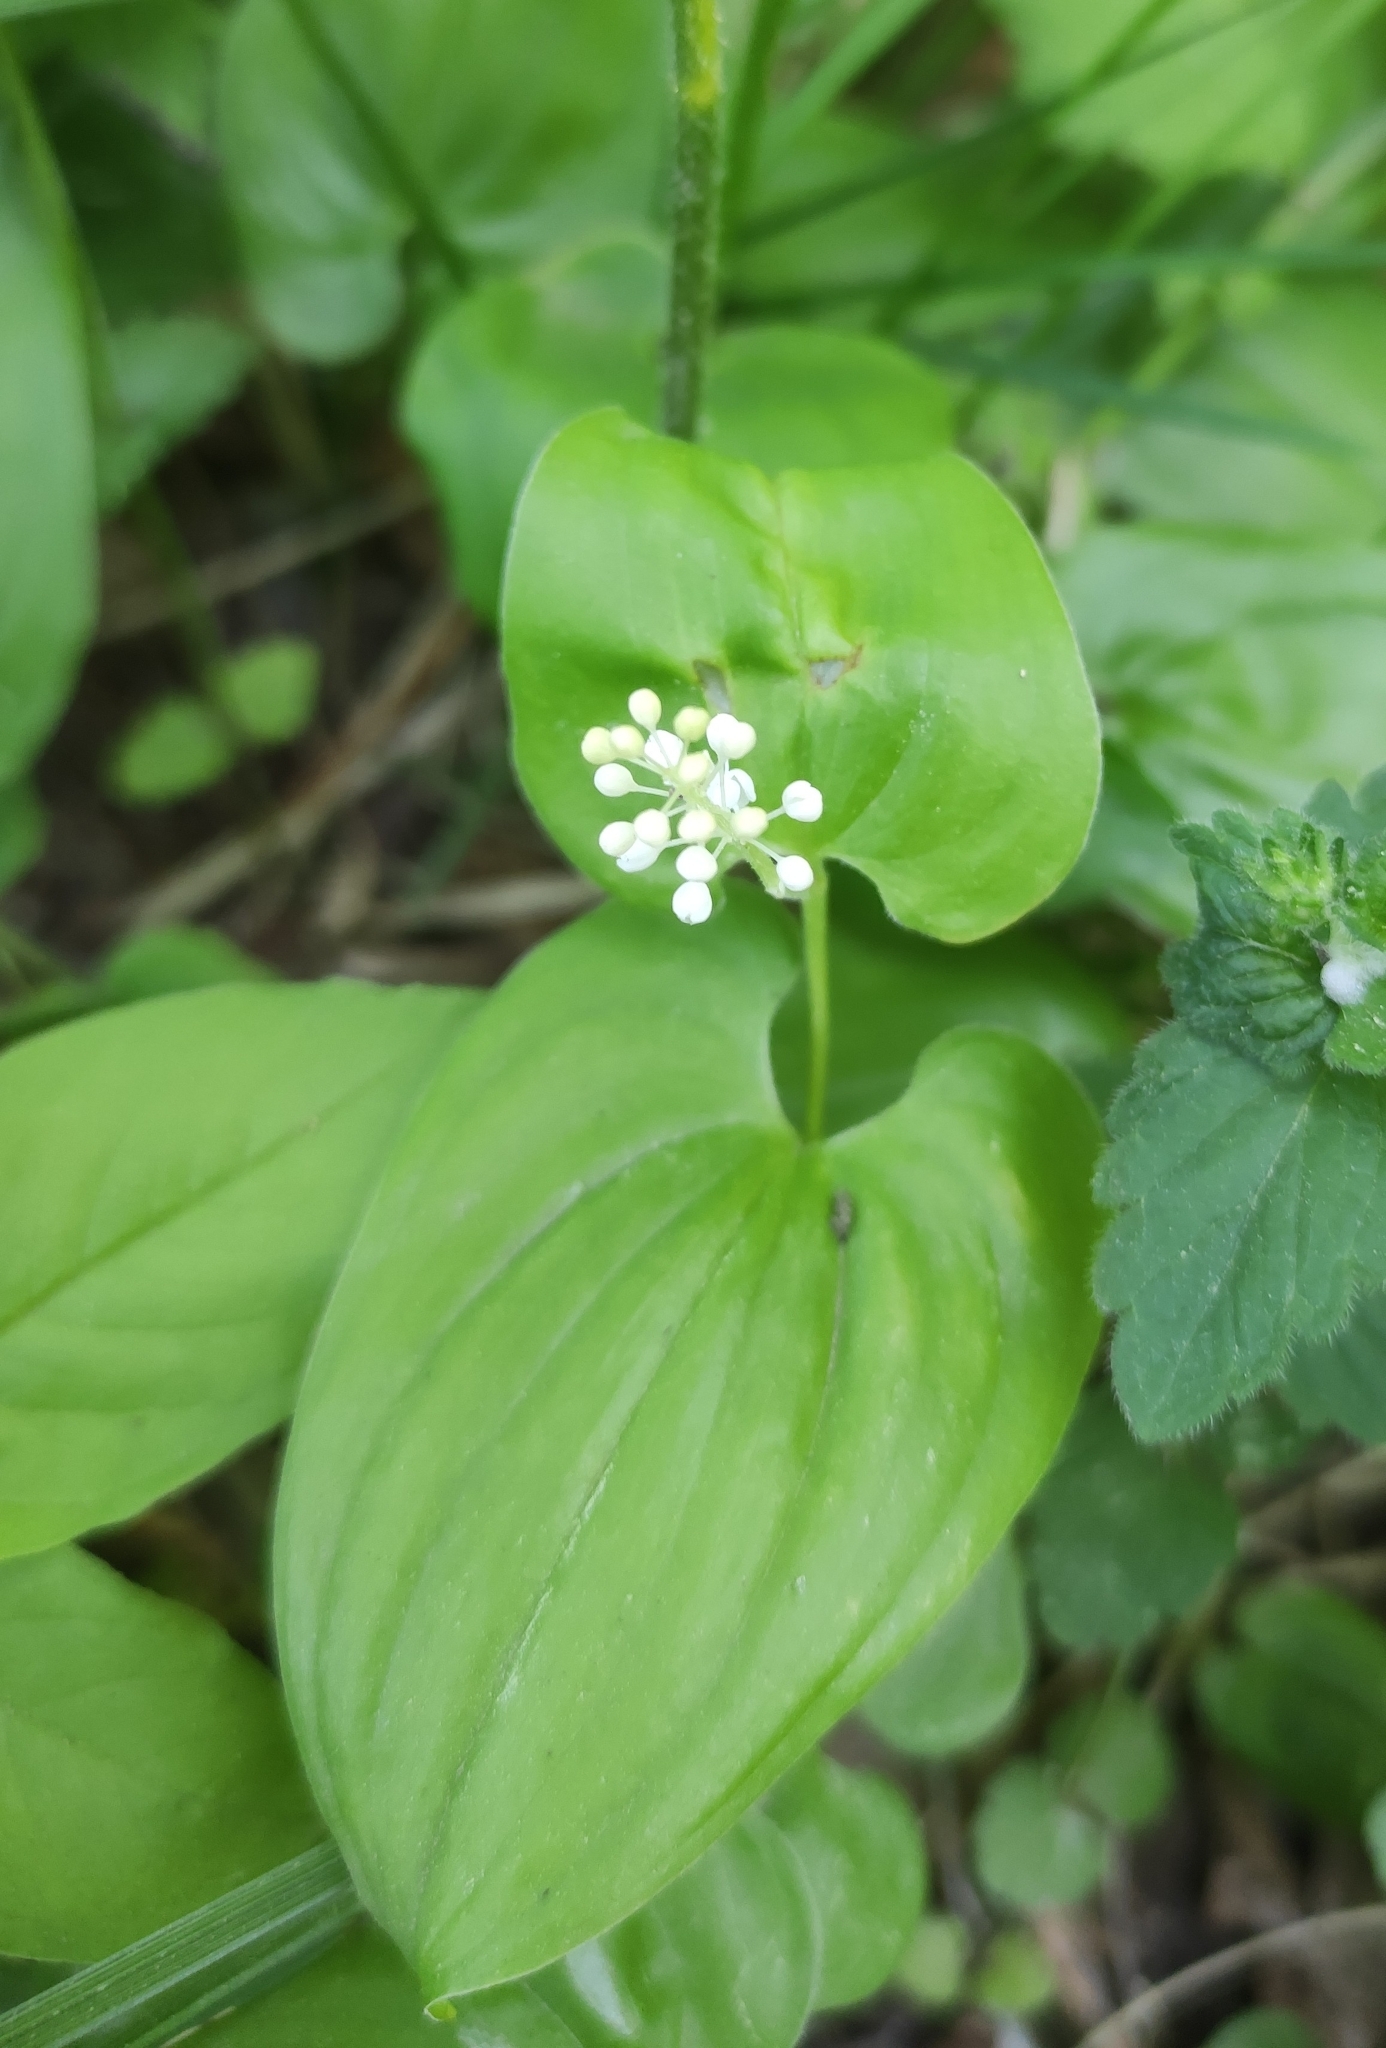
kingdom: Plantae
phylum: Tracheophyta
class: Liliopsida
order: Asparagales
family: Asparagaceae
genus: Maianthemum
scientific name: Maianthemum bifolium
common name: May lily
